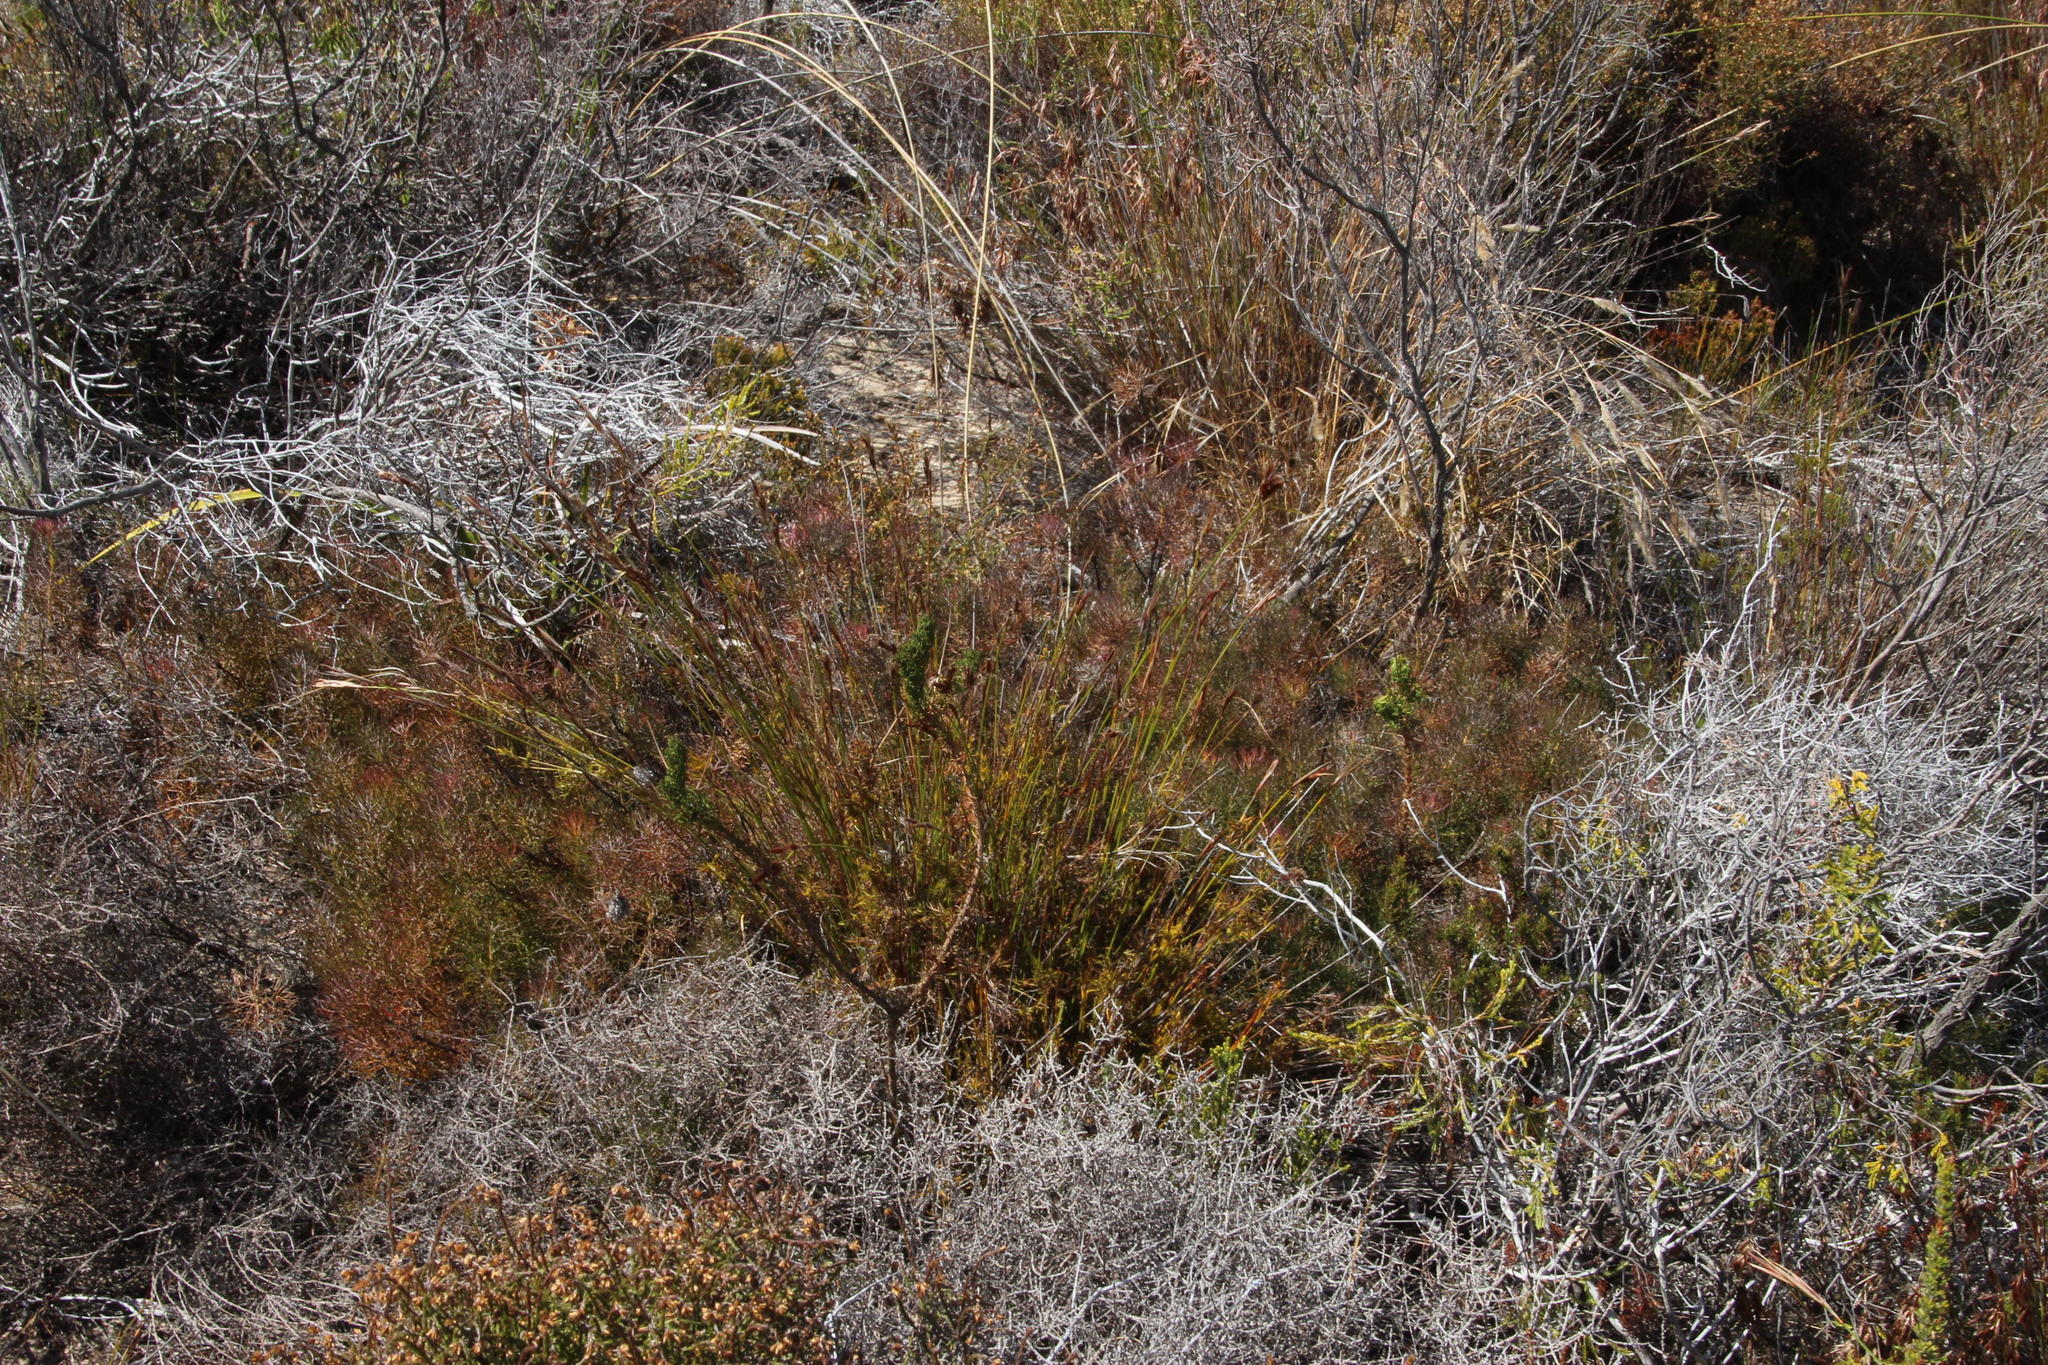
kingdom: Plantae
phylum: Tracheophyta
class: Magnoliopsida
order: Proteales
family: Proteaceae
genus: Serruria
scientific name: Serruria cyanoides
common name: Wynberg spiderhead
